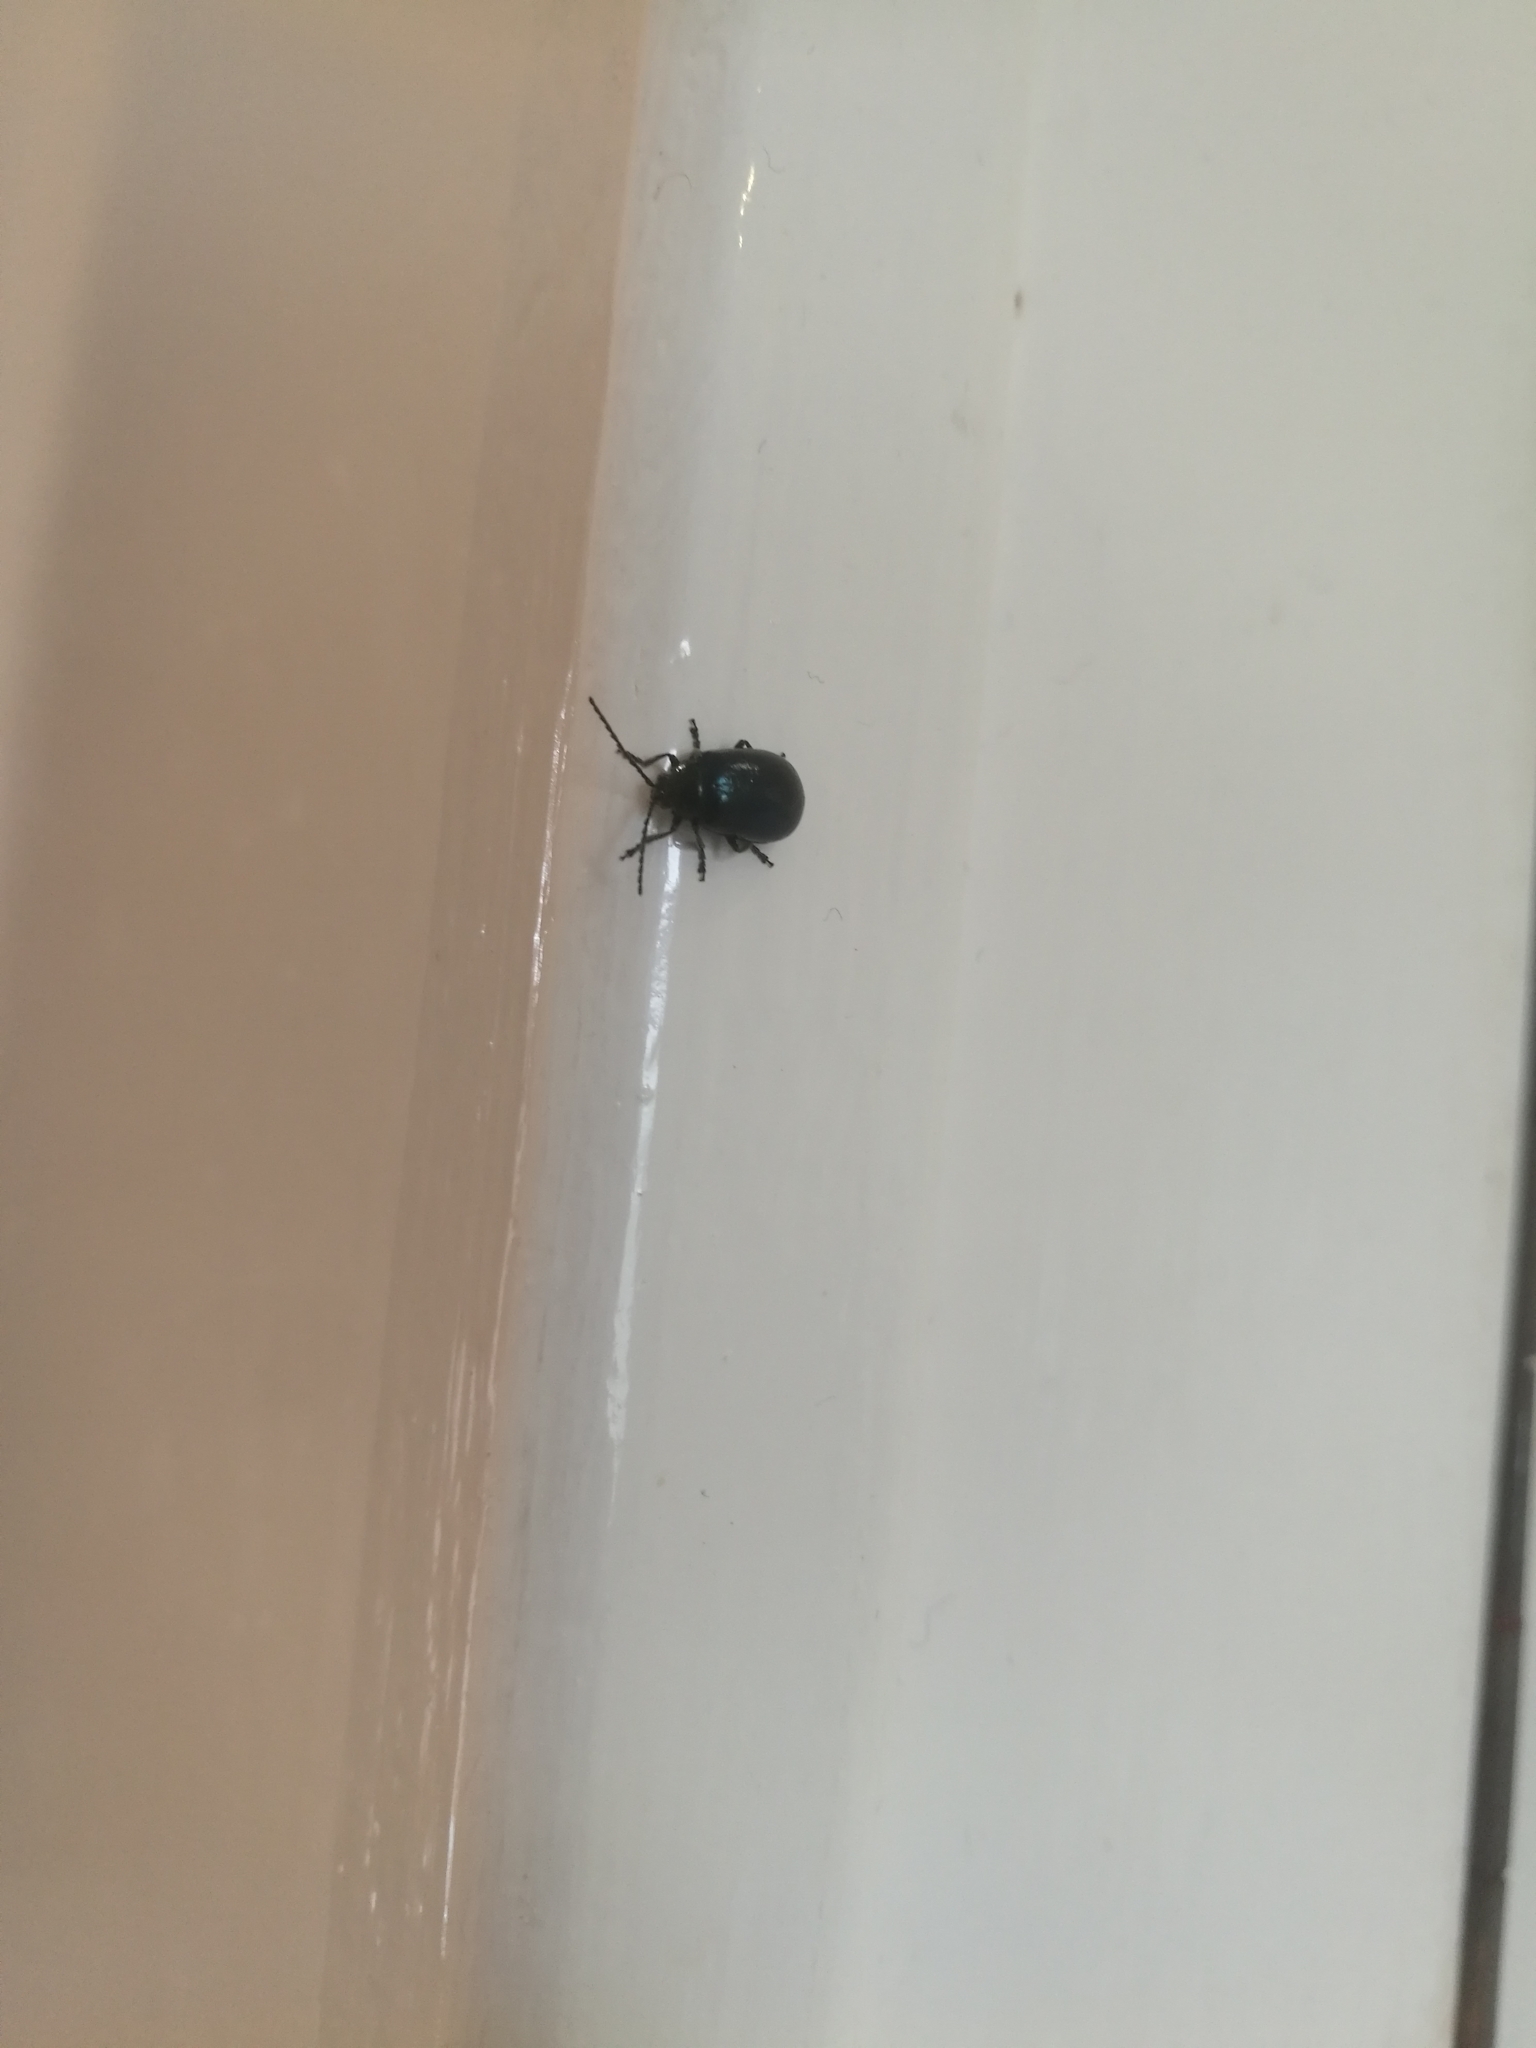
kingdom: Animalia
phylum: Arthropoda
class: Insecta
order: Coleoptera
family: Chrysomelidae
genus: Agelastica
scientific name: Agelastica alni
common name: Alder leaf beetle
